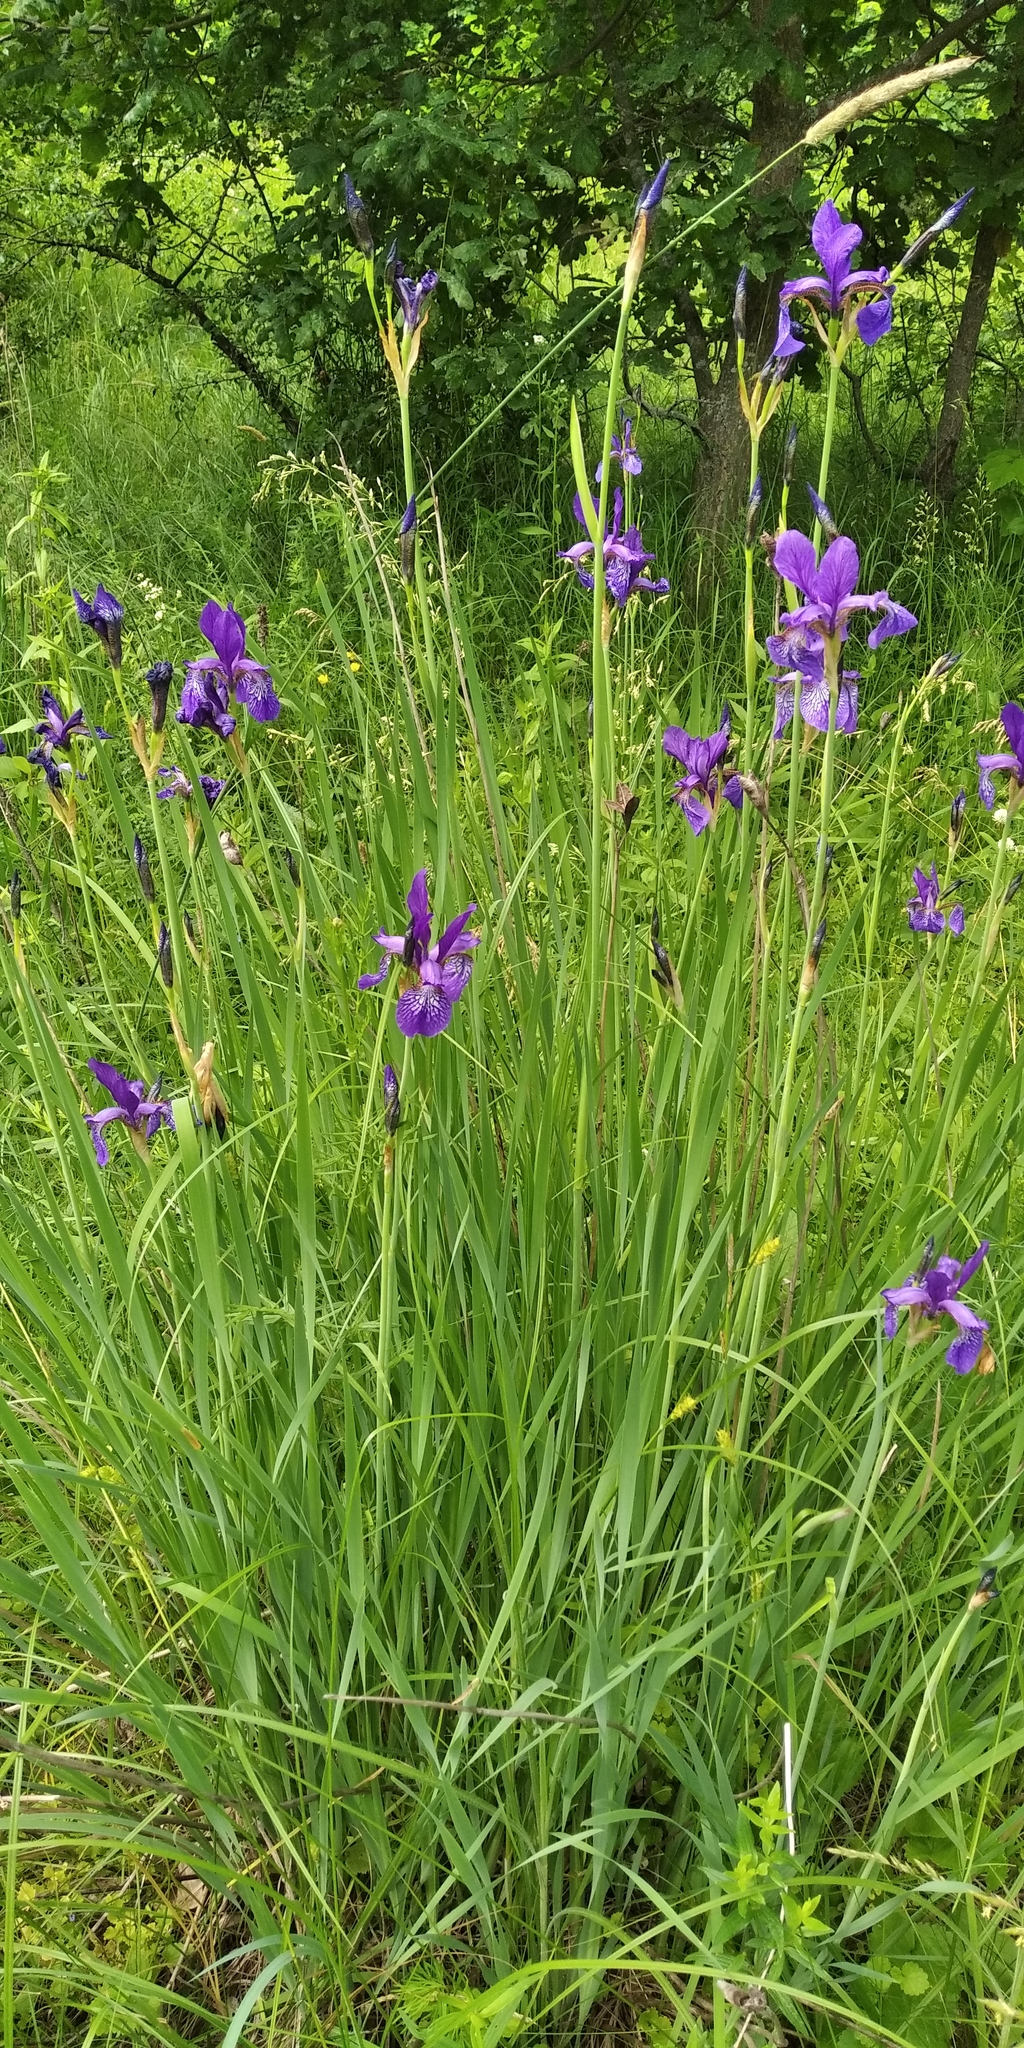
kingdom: Plantae
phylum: Tracheophyta
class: Liliopsida
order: Asparagales
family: Iridaceae
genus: Iris
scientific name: Iris sibirica
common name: Siberian iris
